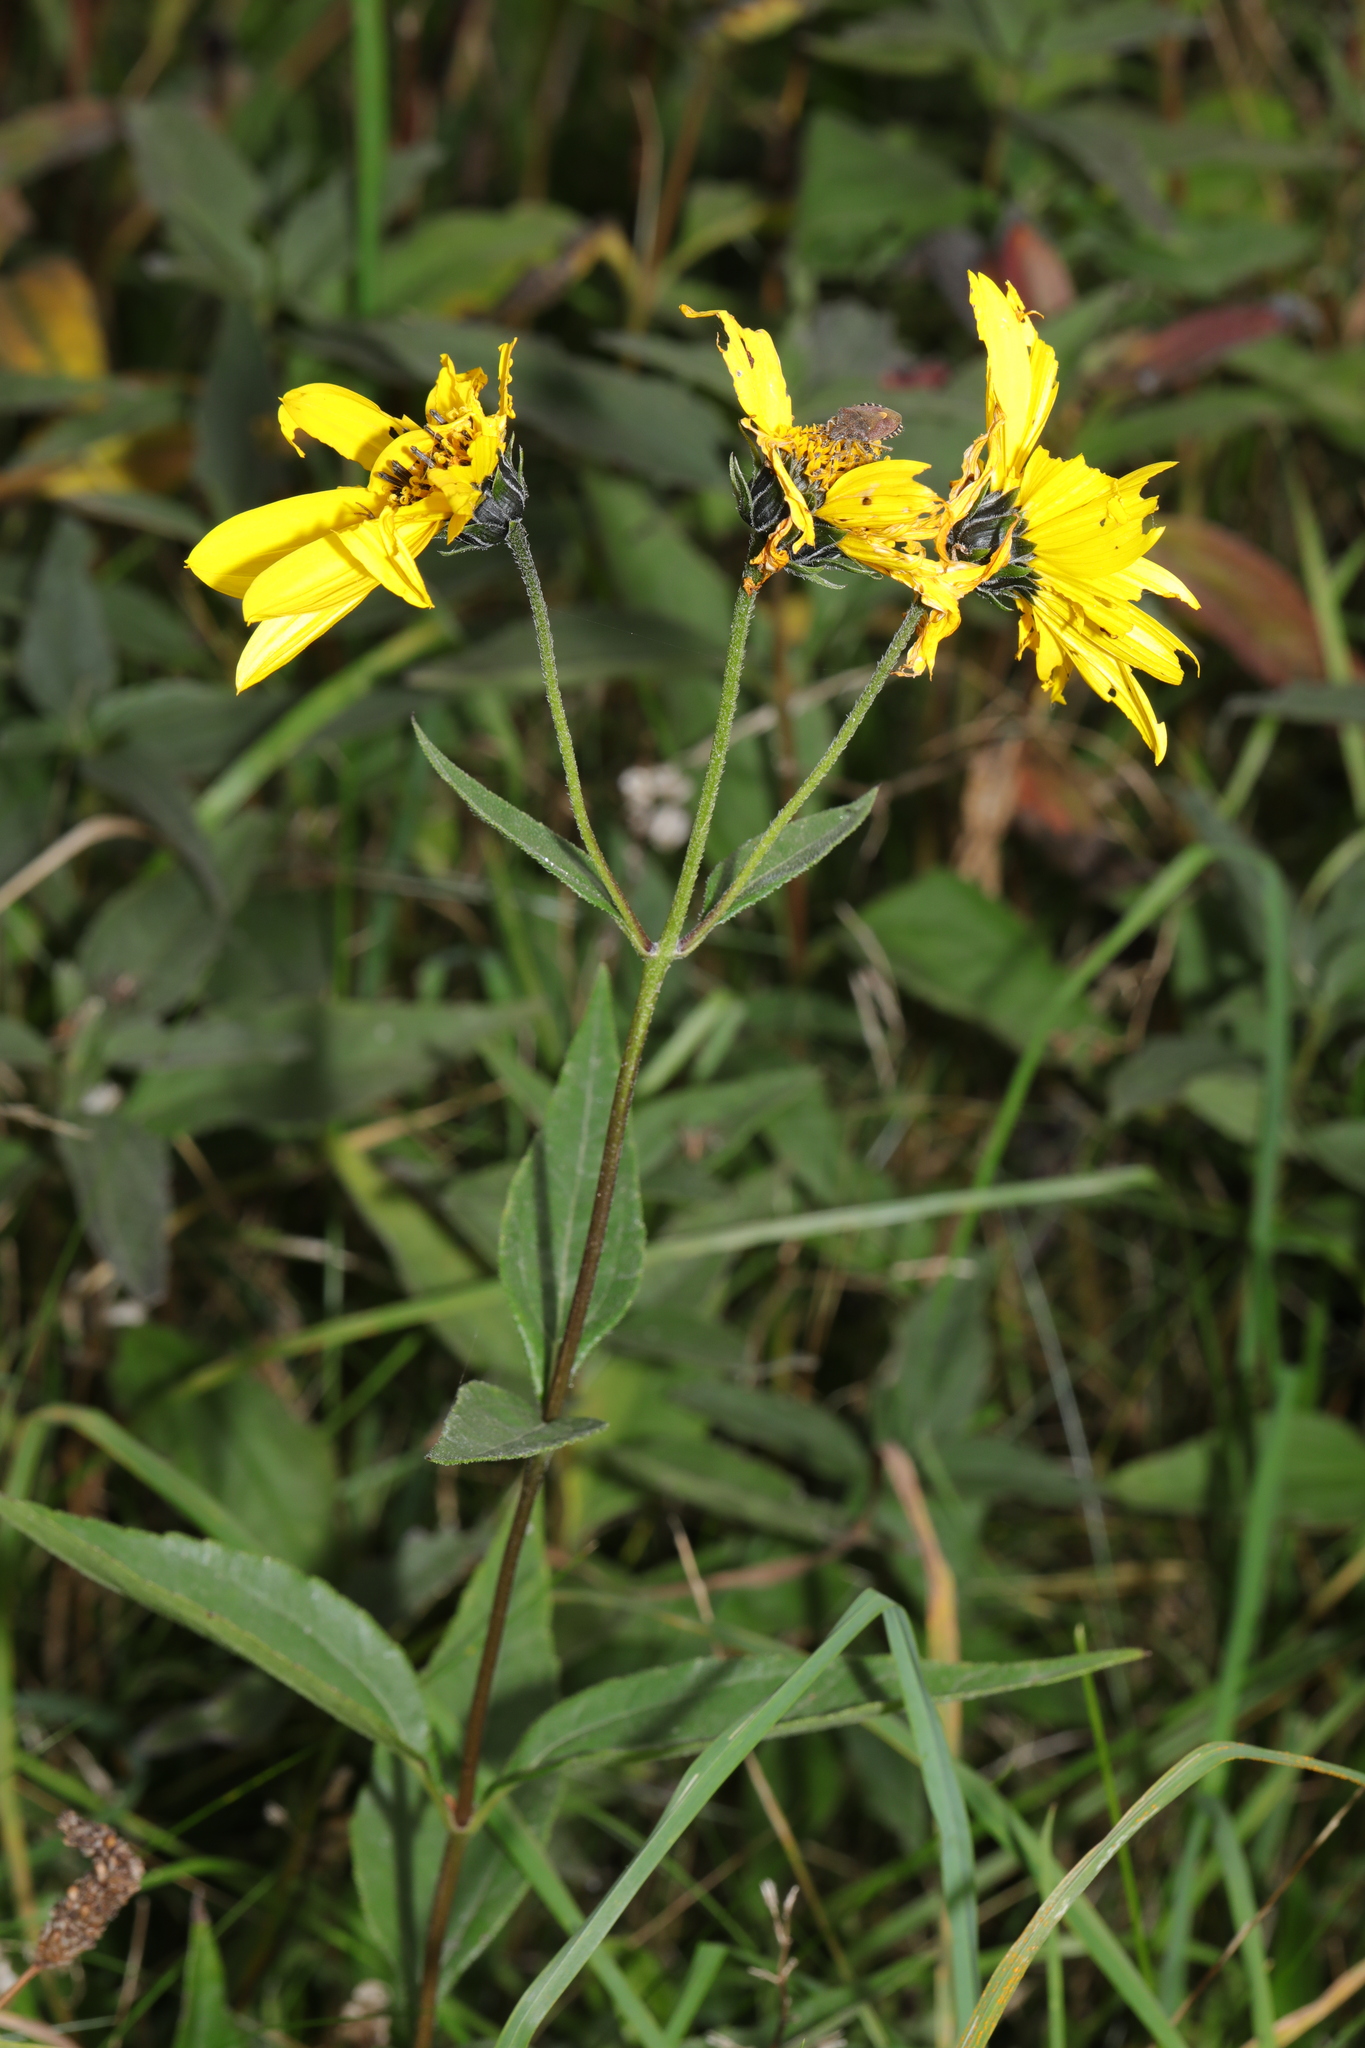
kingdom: Plantae
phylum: Tracheophyta
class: Magnoliopsida
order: Asterales
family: Asteraceae
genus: Helianthus
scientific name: Helianthus tuberosus
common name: Jerusalem artichoke
